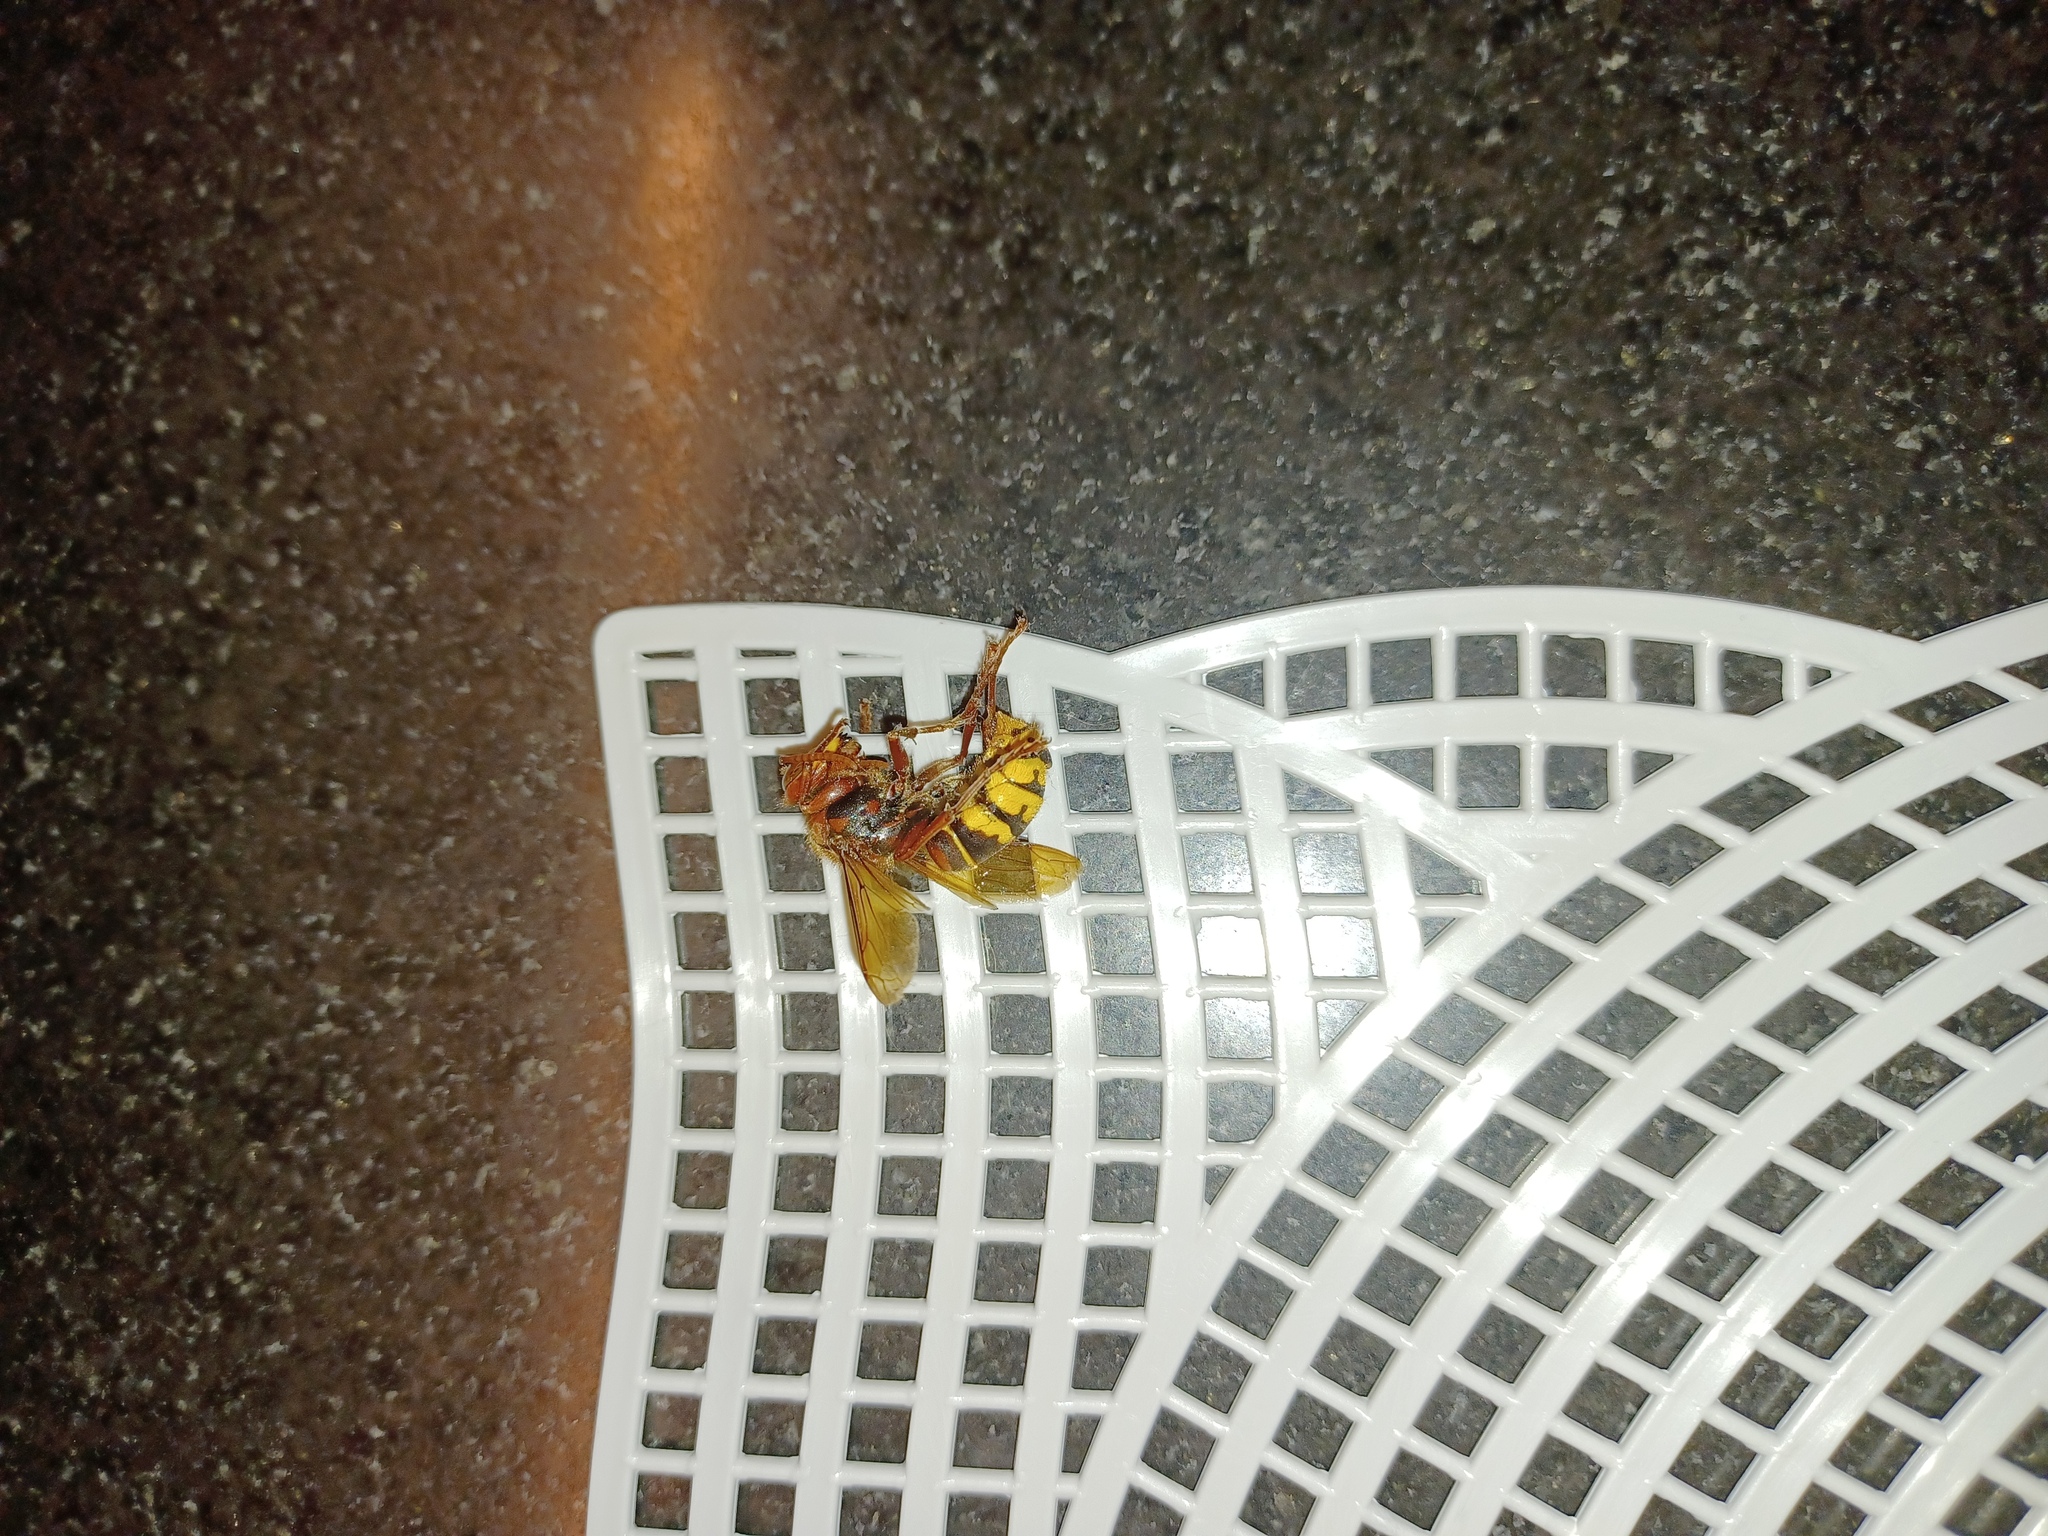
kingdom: Animalia
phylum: Arthropoda
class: Insecta
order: Hymenoptera
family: Vespidae
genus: Vespa
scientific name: Vespa crabro
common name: Hornet
